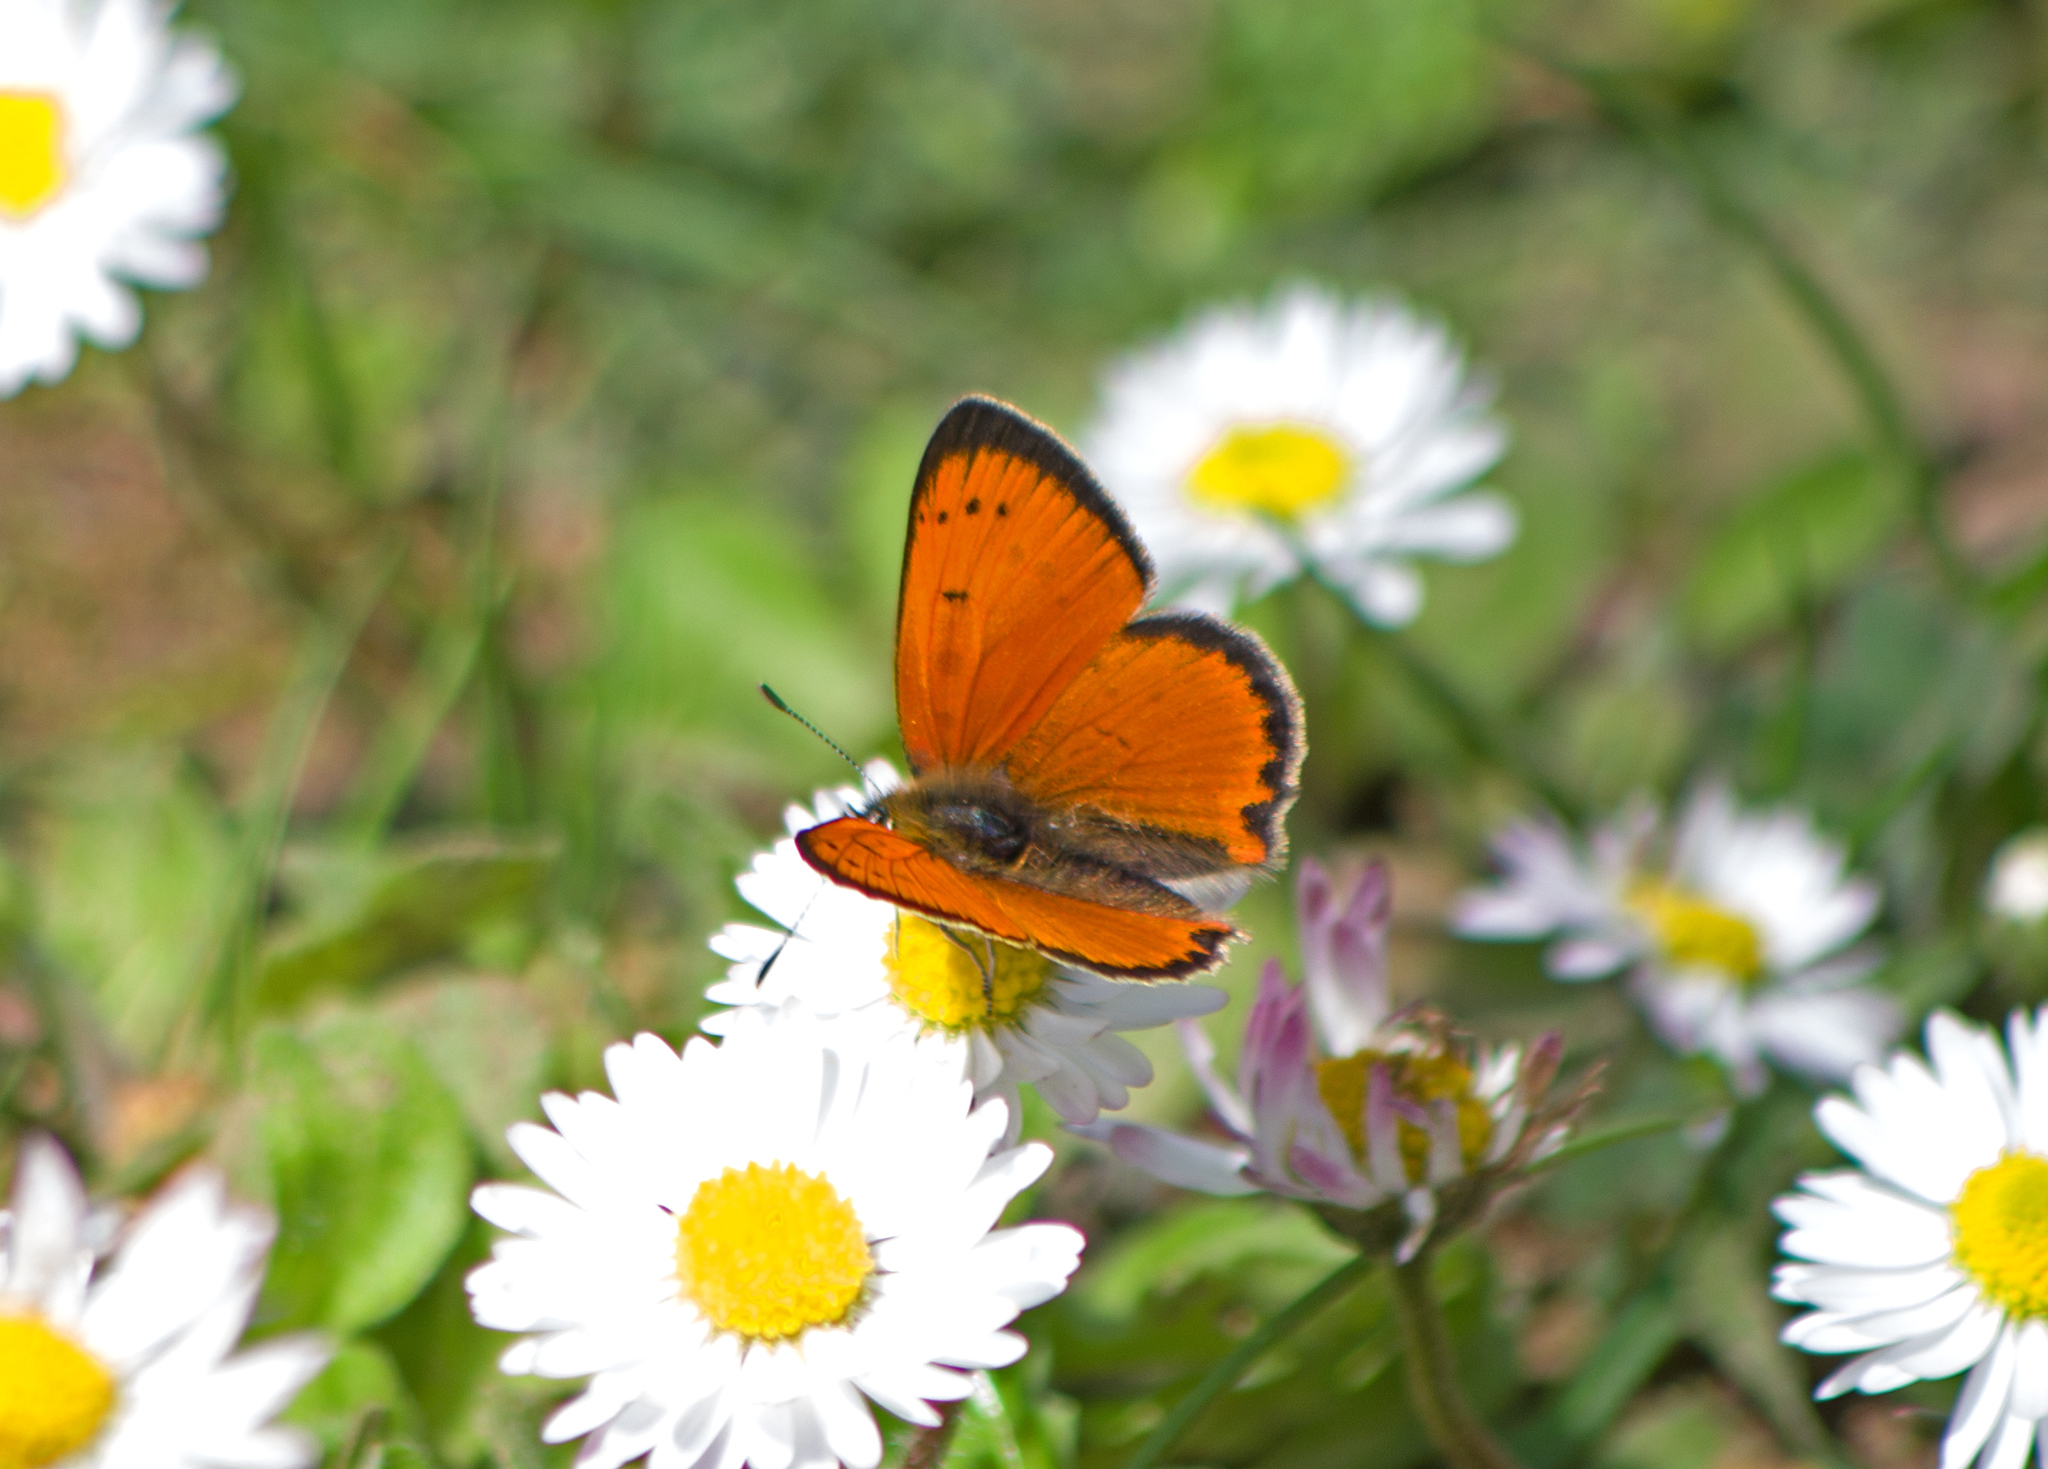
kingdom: Animalia
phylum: Arthropoda
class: Insecta
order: Lepidoptera
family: Lycaenidae
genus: Polyommatus
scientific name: Polyommatus ottomanus
